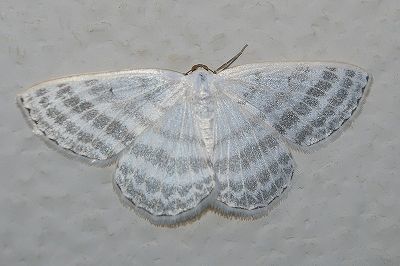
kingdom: Animalia
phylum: Arthropoda
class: Insecta
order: Lepidoptera
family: Geometridae
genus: Taeniophila
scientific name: Taeniophila unio
